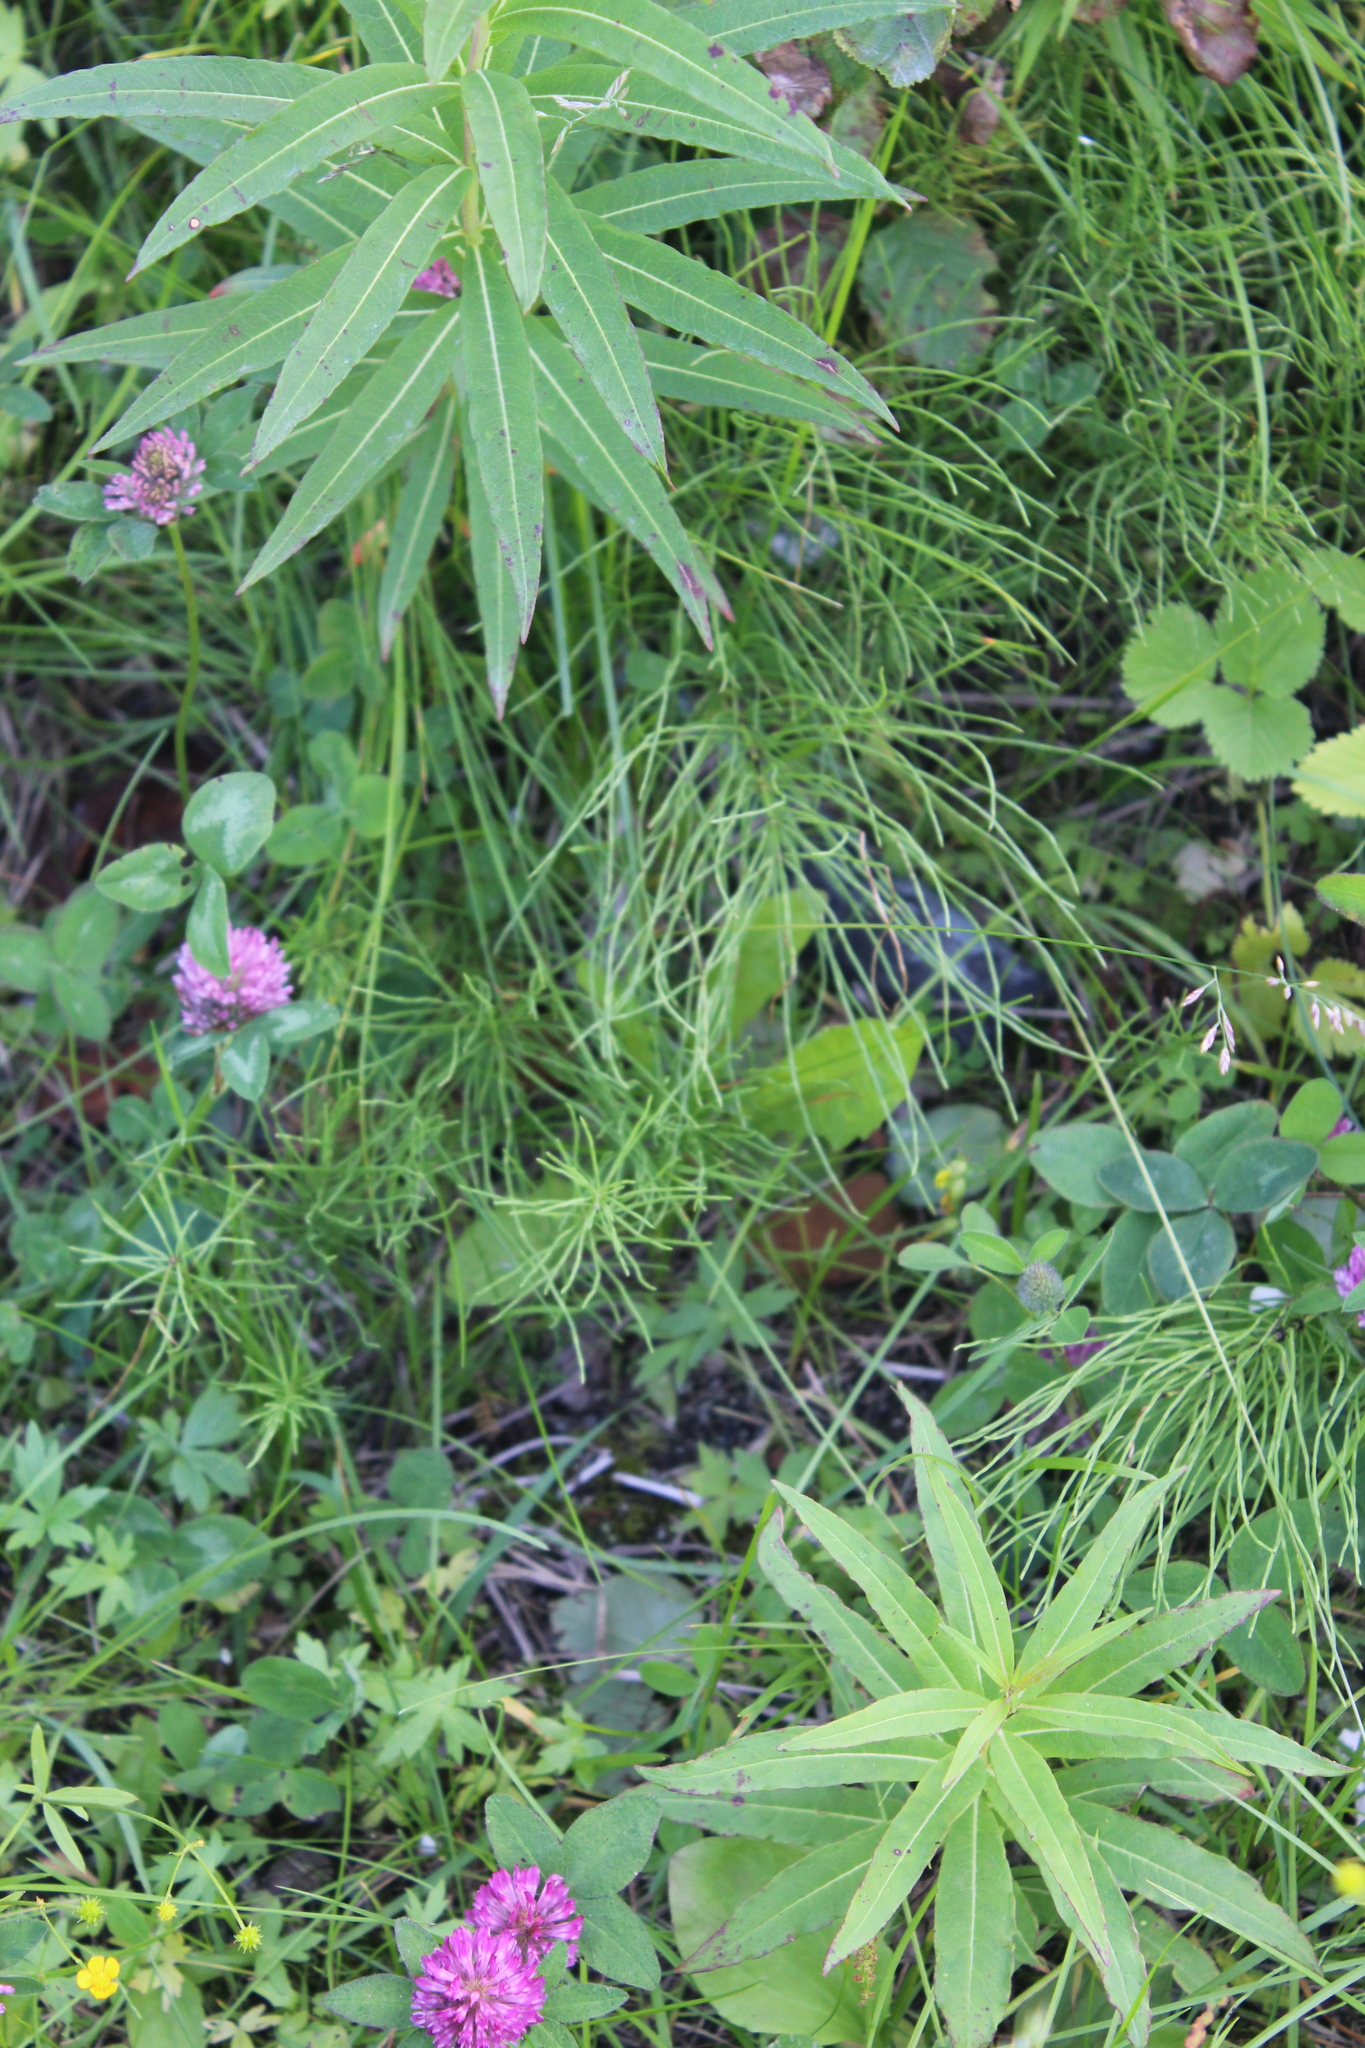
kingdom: Plantae
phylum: Tracheophyta
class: Polypodiopsida
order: Equisetales
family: Equisetaceae
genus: Equisetum
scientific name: Equisetum arvense
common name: Field horsetail
